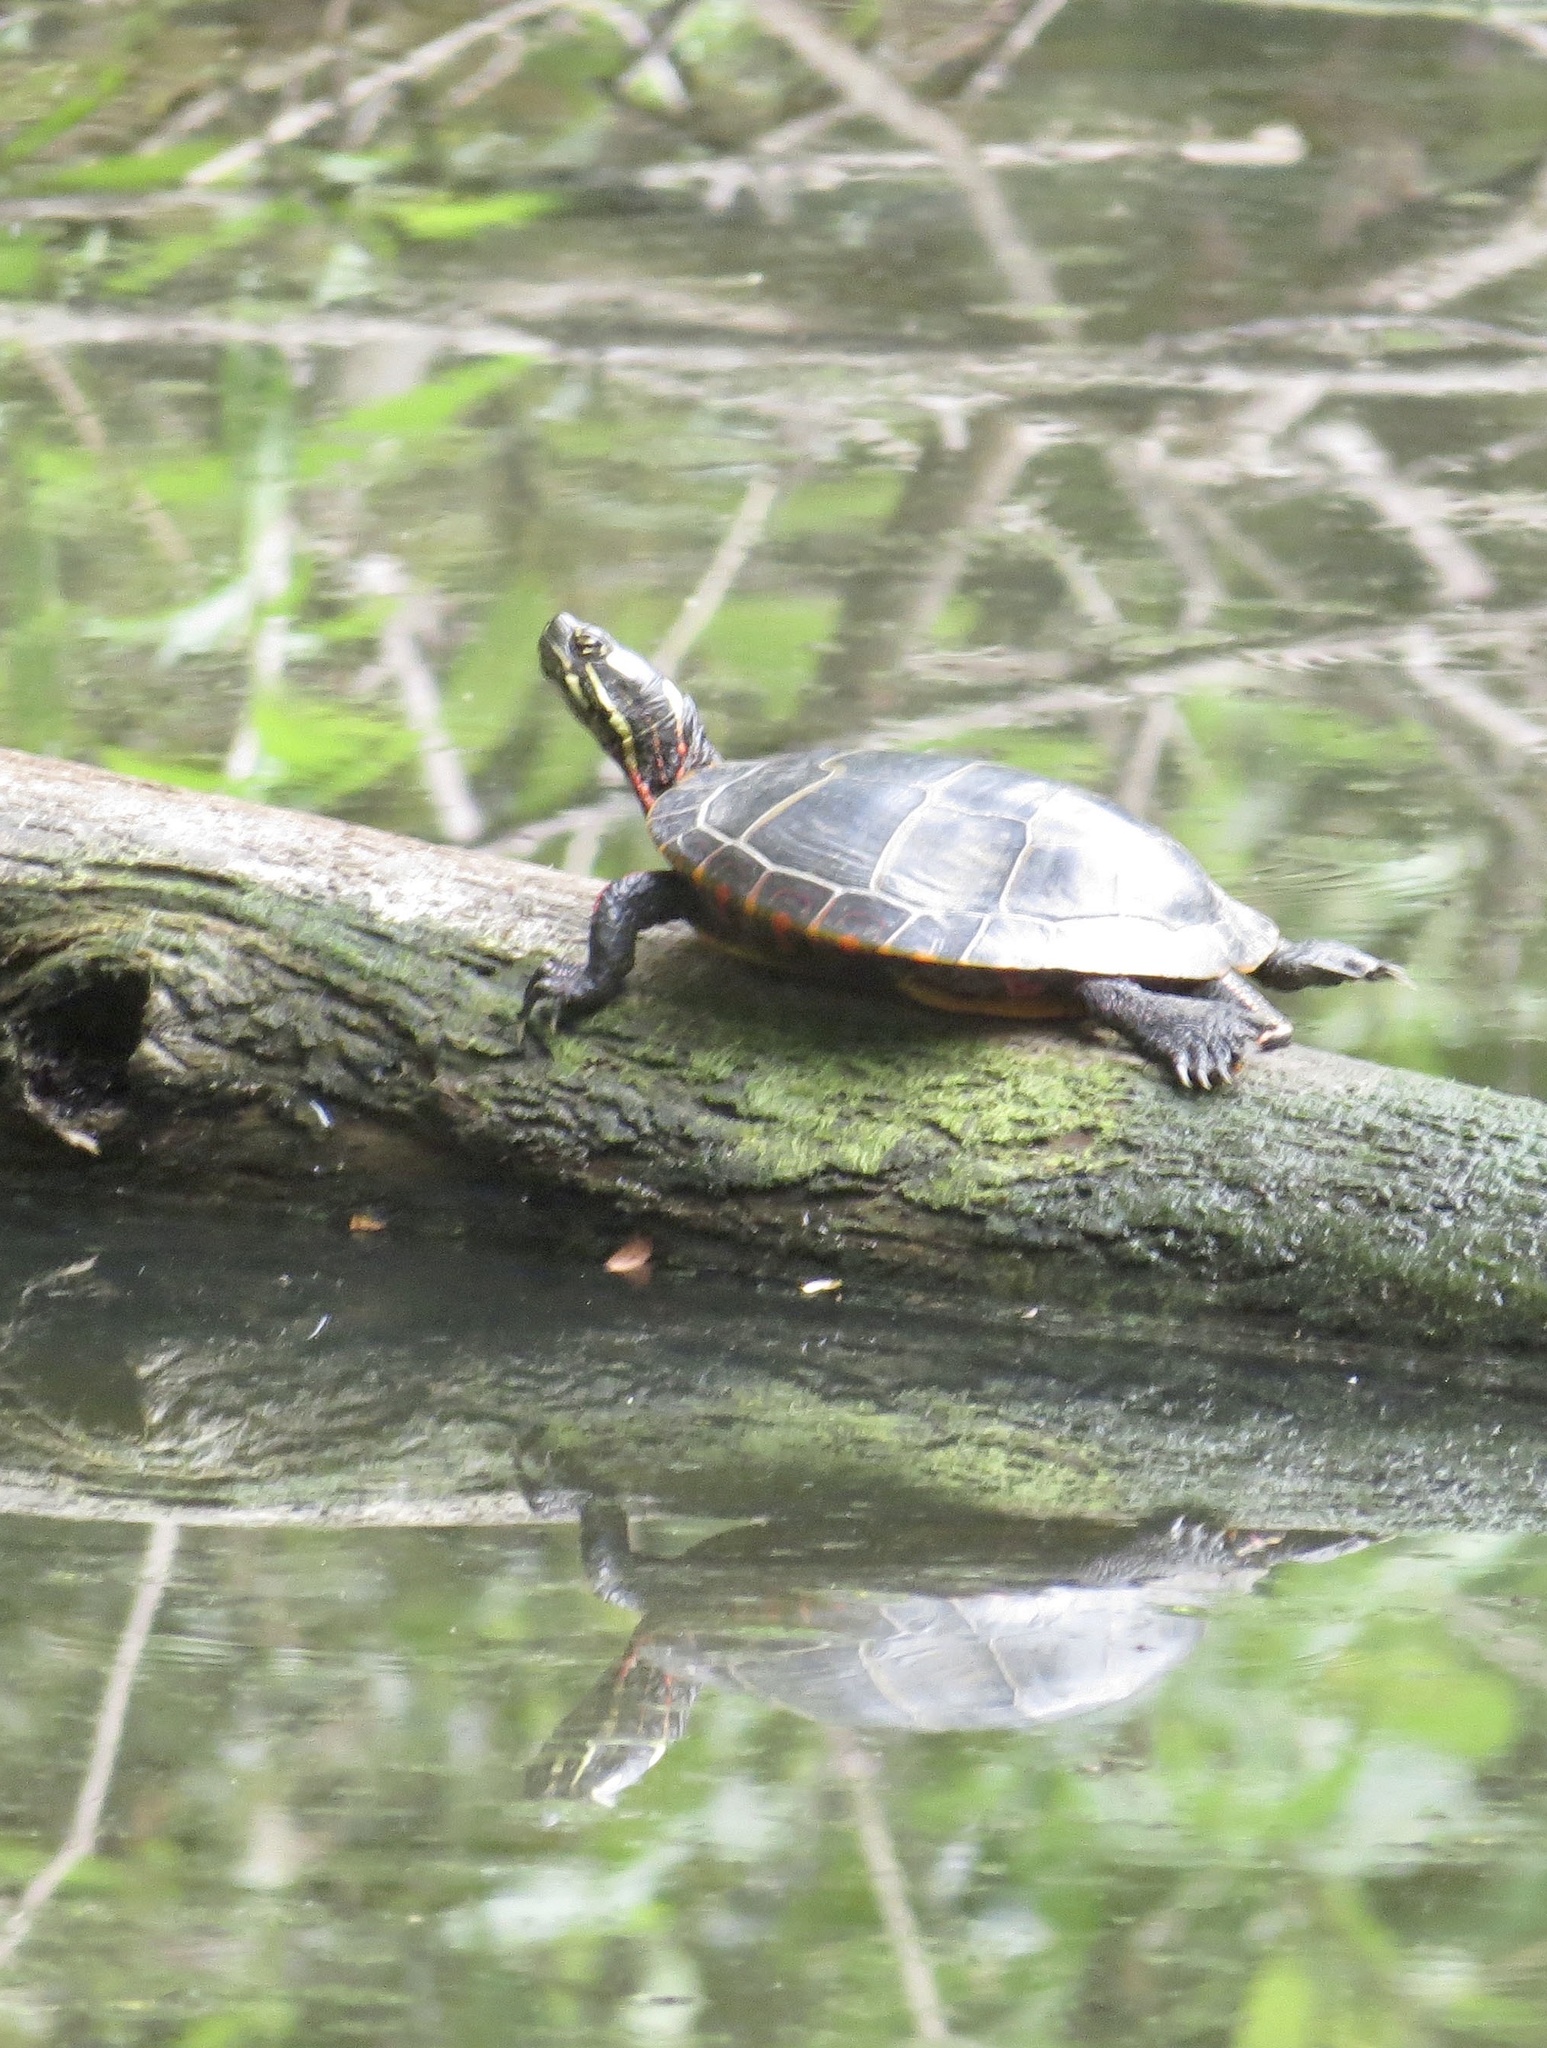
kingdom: Animalia
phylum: Chordata
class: Testudines
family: Emydidae
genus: Chrysemys
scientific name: Chrysemys picta
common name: Painted turtle
